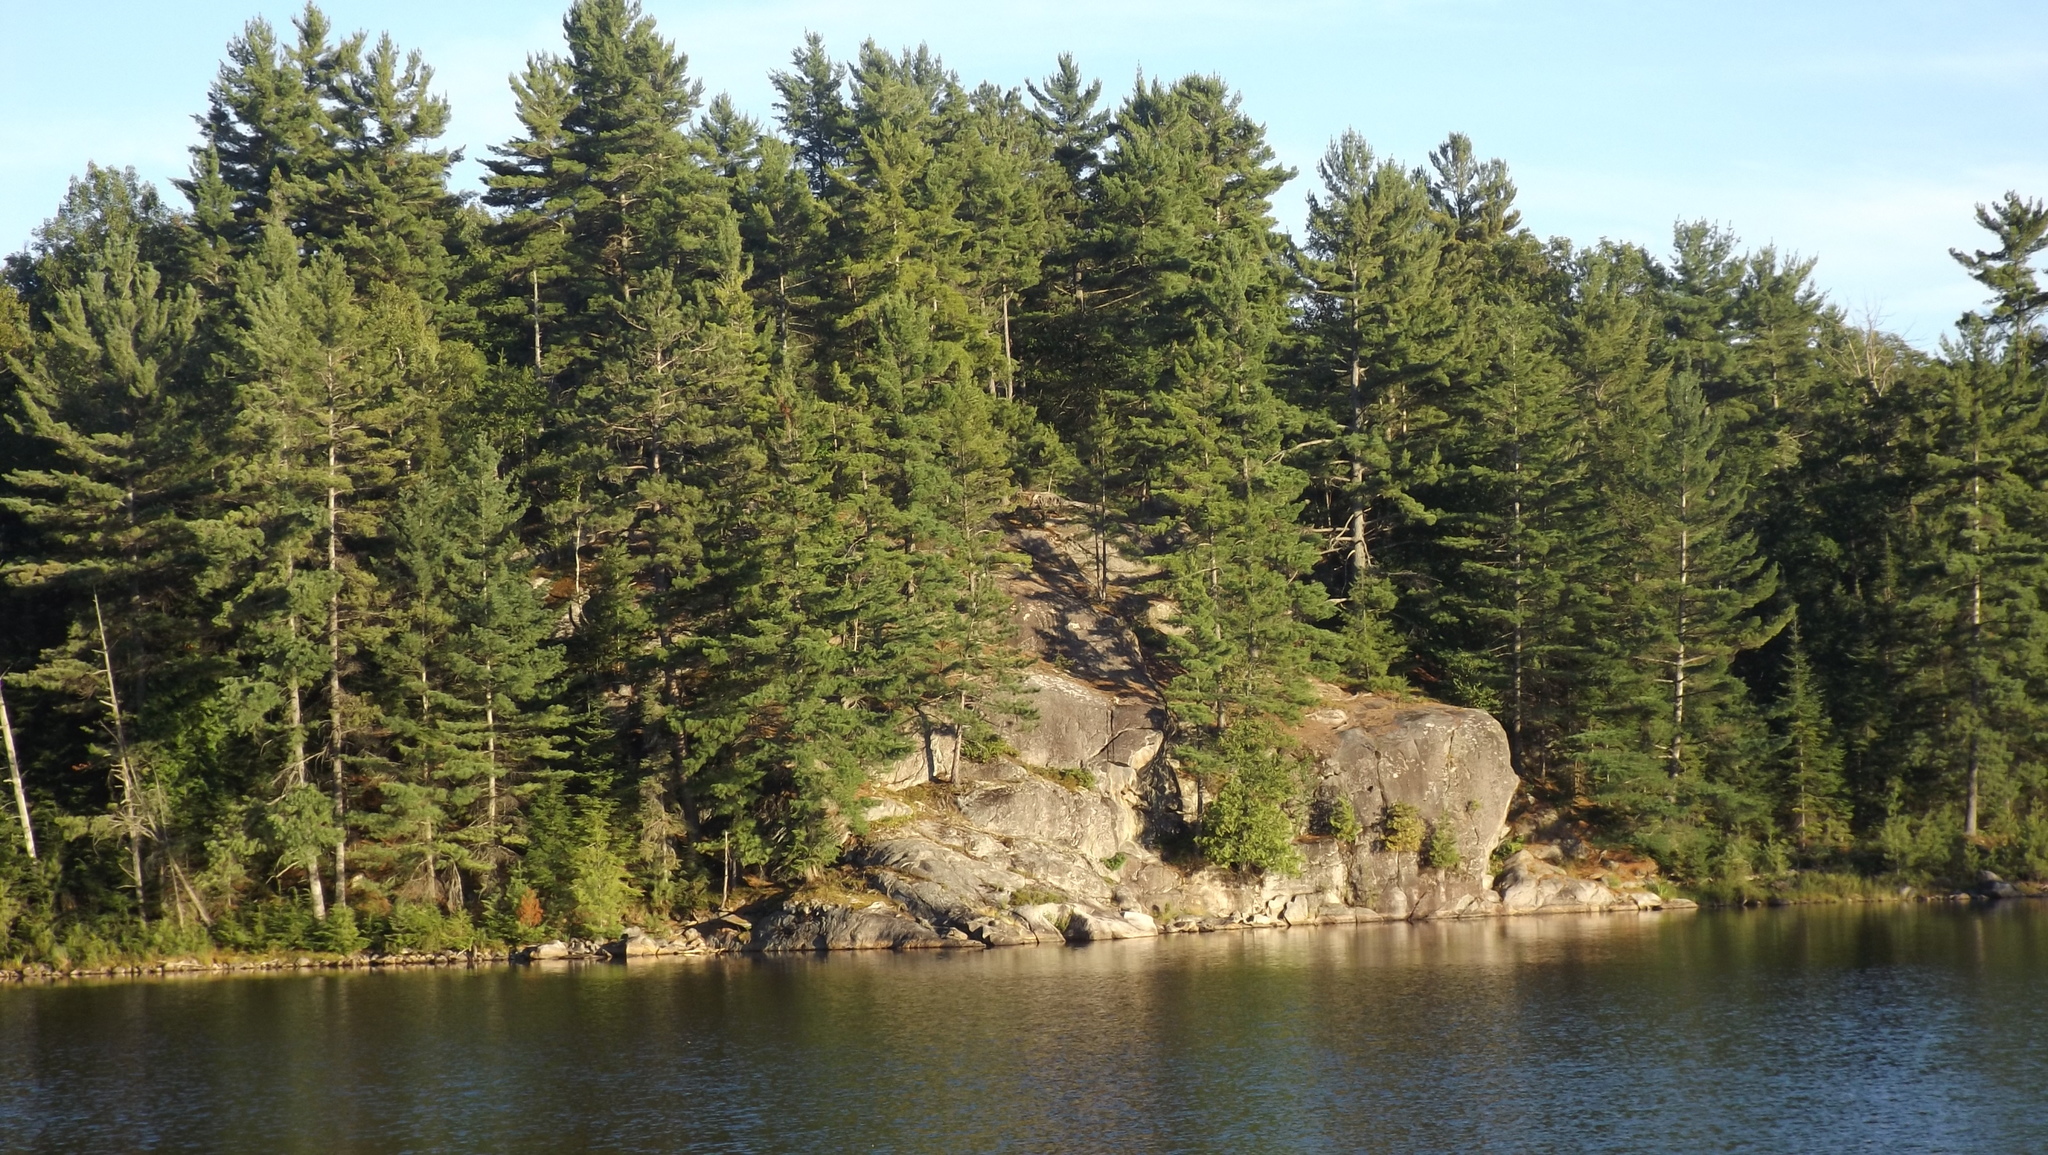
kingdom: Plantae
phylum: Tracheophyta
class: Pinopsida
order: Pinales
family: Pinaceae
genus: Pinus
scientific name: Pinus strobus
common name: Weymouth pine
